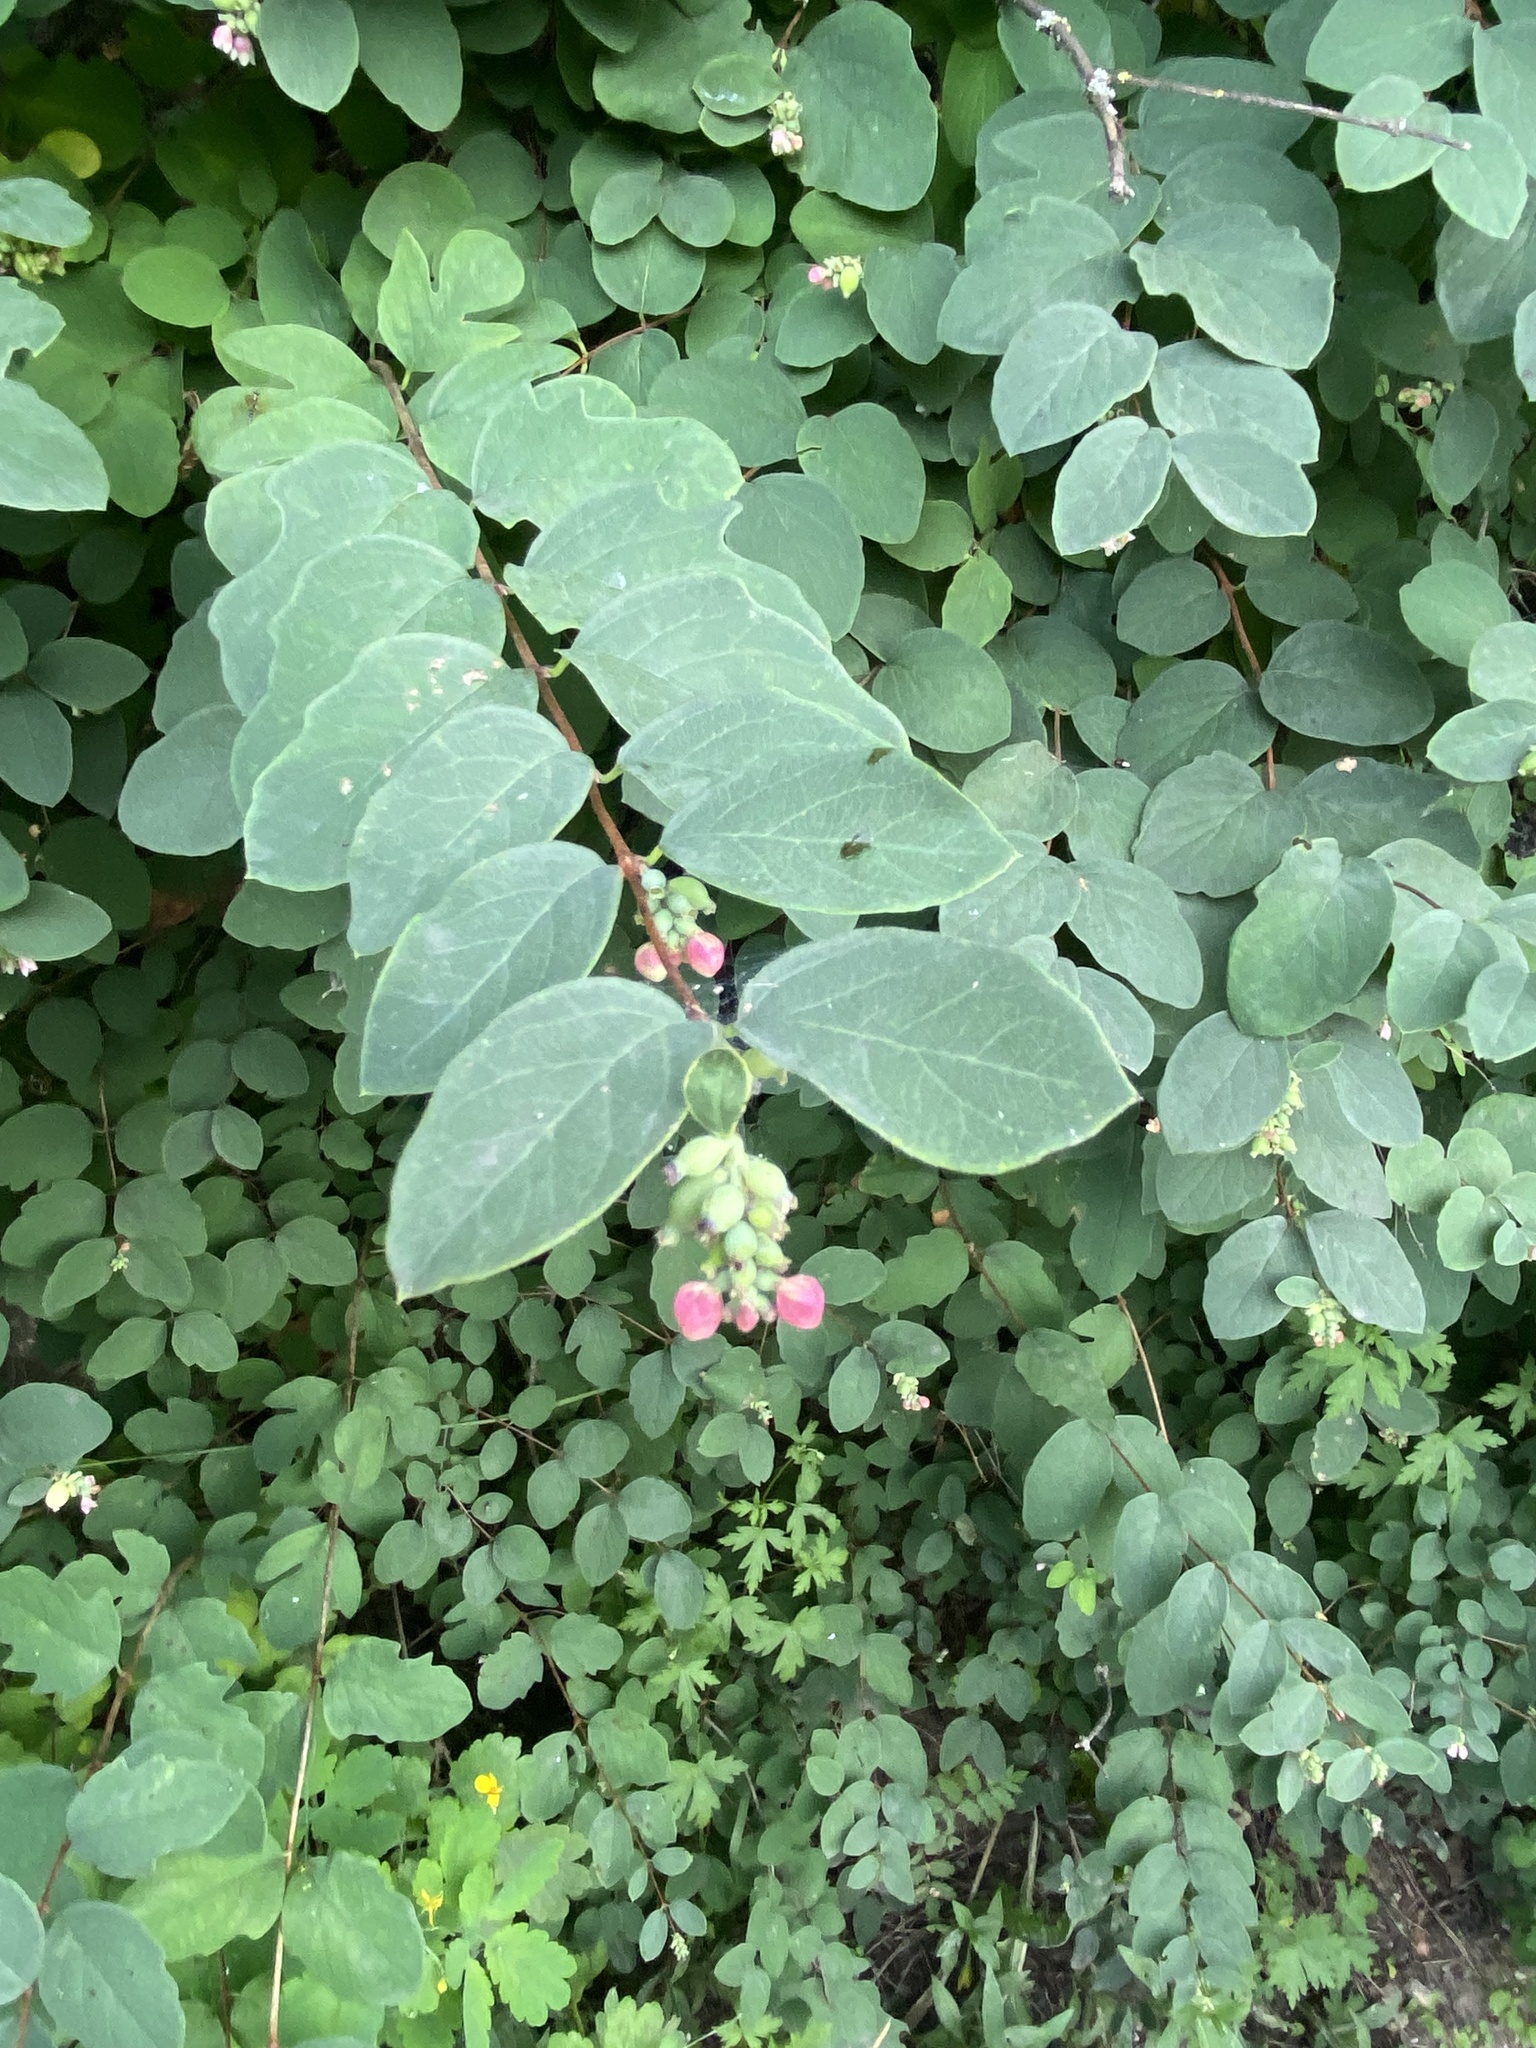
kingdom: Plantae
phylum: Tracheophyta
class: Magnoliopsida
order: Dipsacales
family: Caprifoliaceae
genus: Symphoricarpos
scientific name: Symphoricarpos albus
